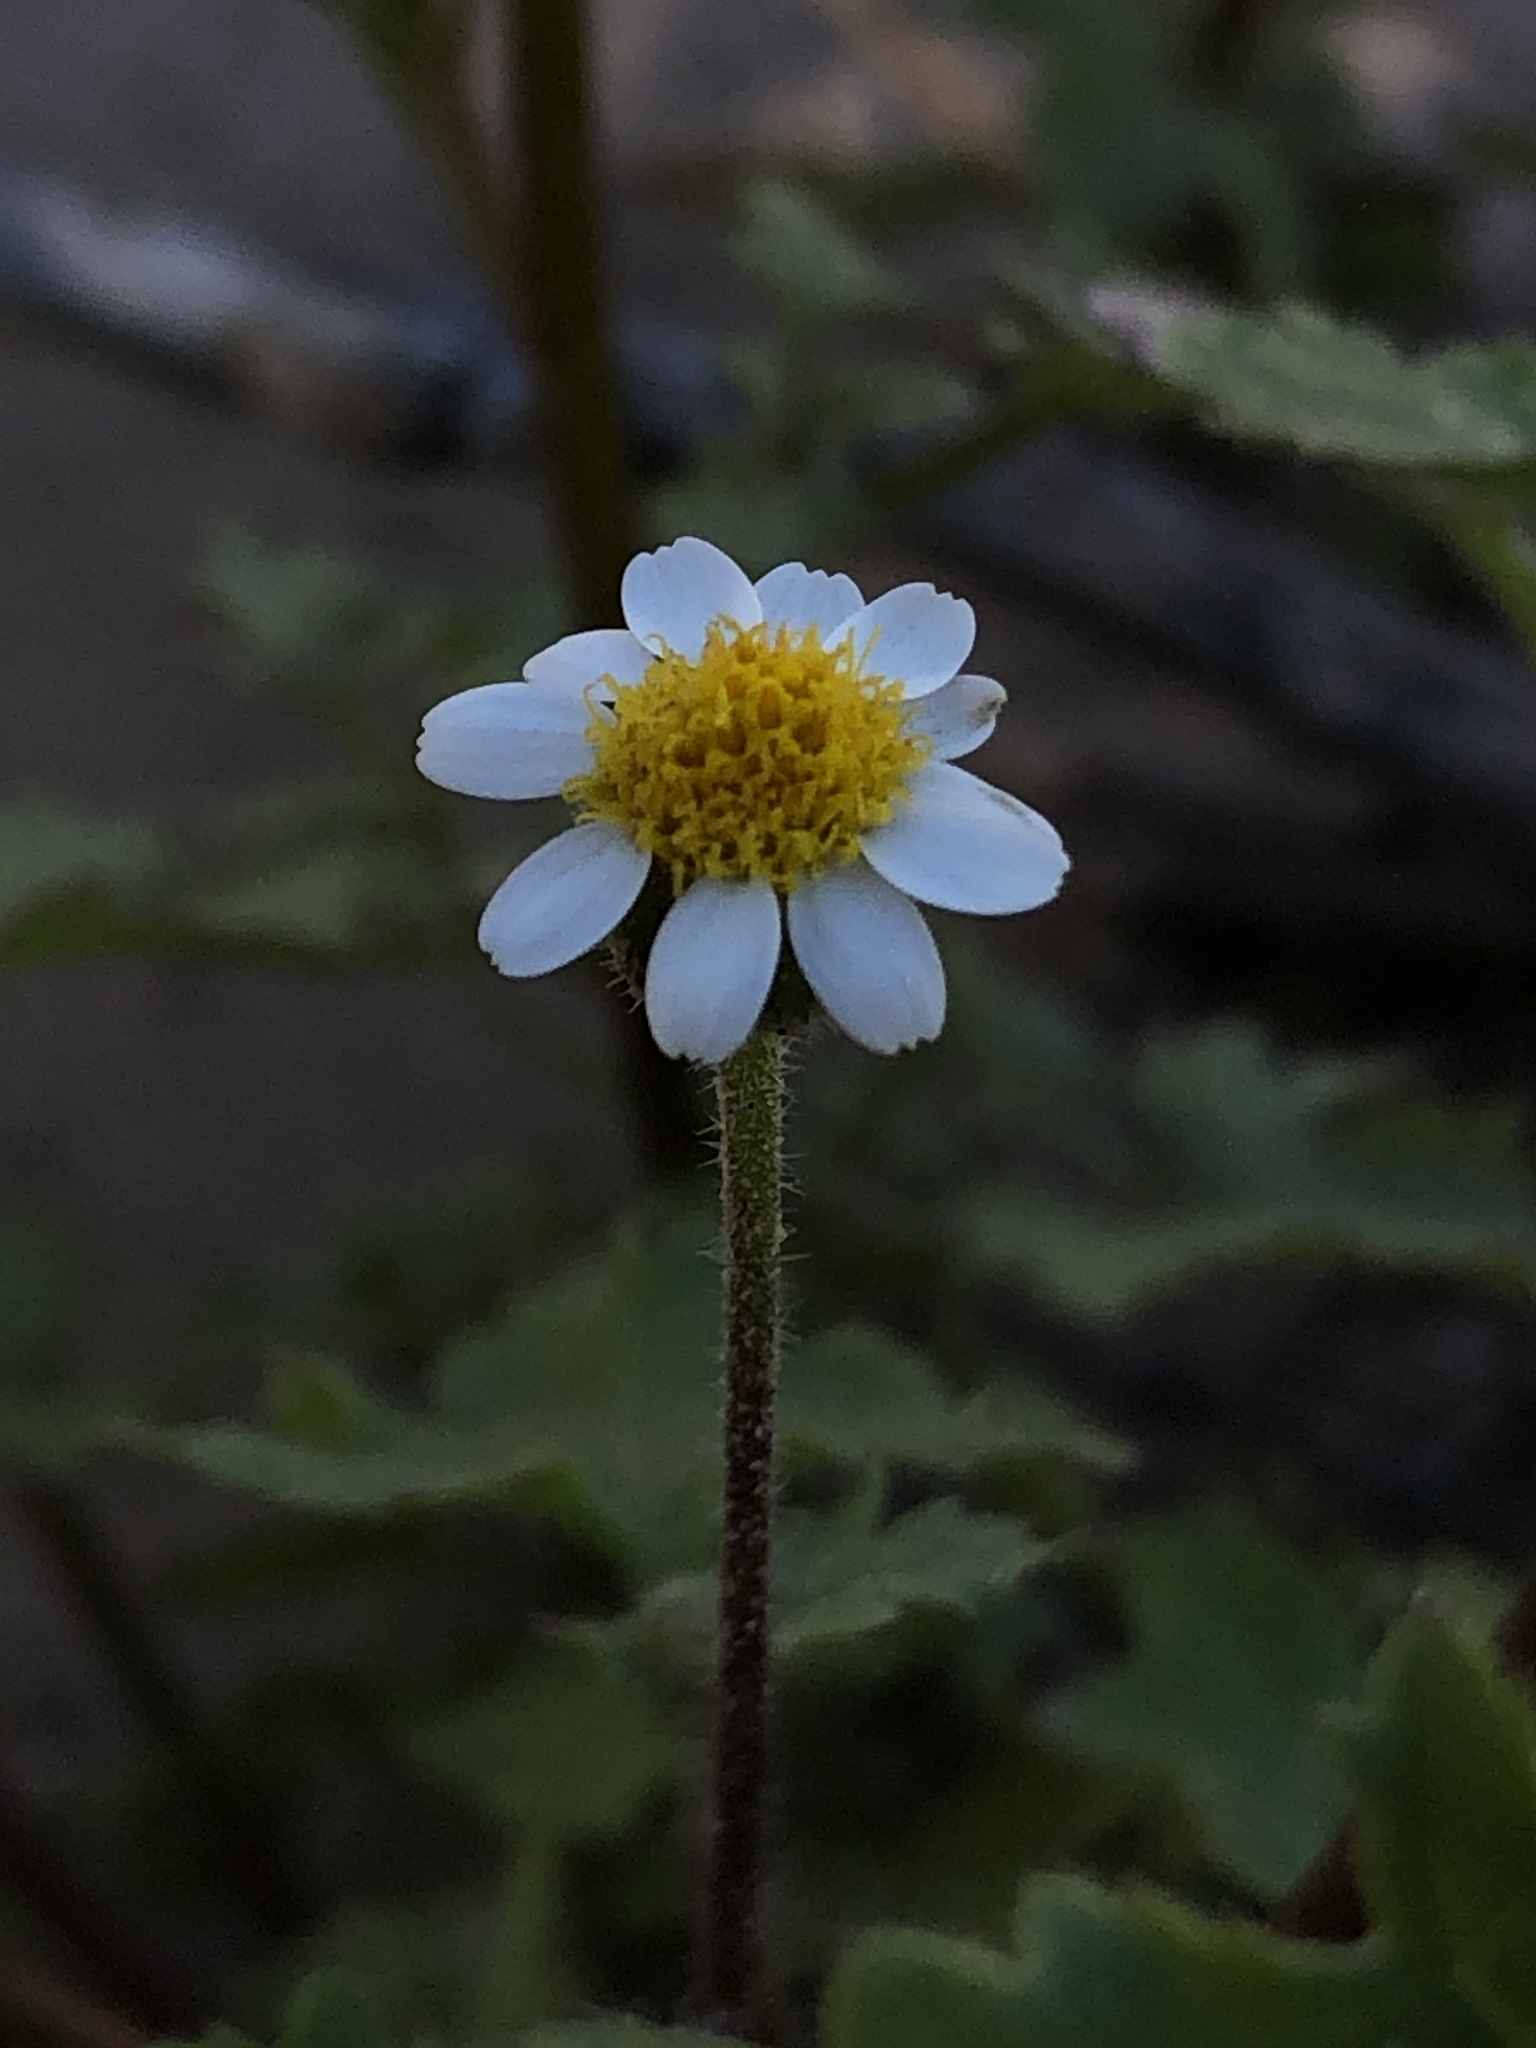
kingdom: Plantae
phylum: Tracheophyta
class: Magnoliopsida
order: Asterales
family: Asteraceae
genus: Galinsogeopsis
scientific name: Galinsogeopsis spilanthoides
